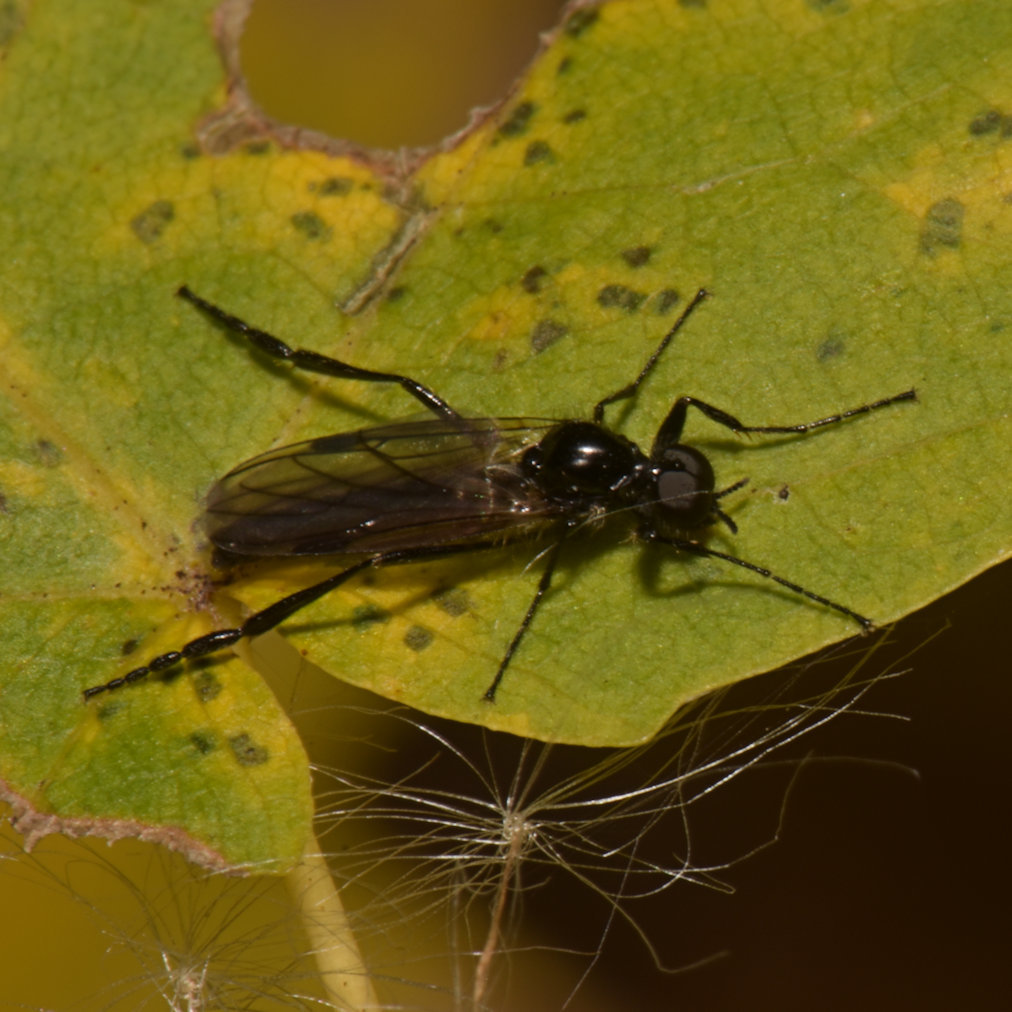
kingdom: Animalia
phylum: Arthropoda
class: Insecta
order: Diptera
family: Bibionidae
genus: Bibio
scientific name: Bibio slossonae
